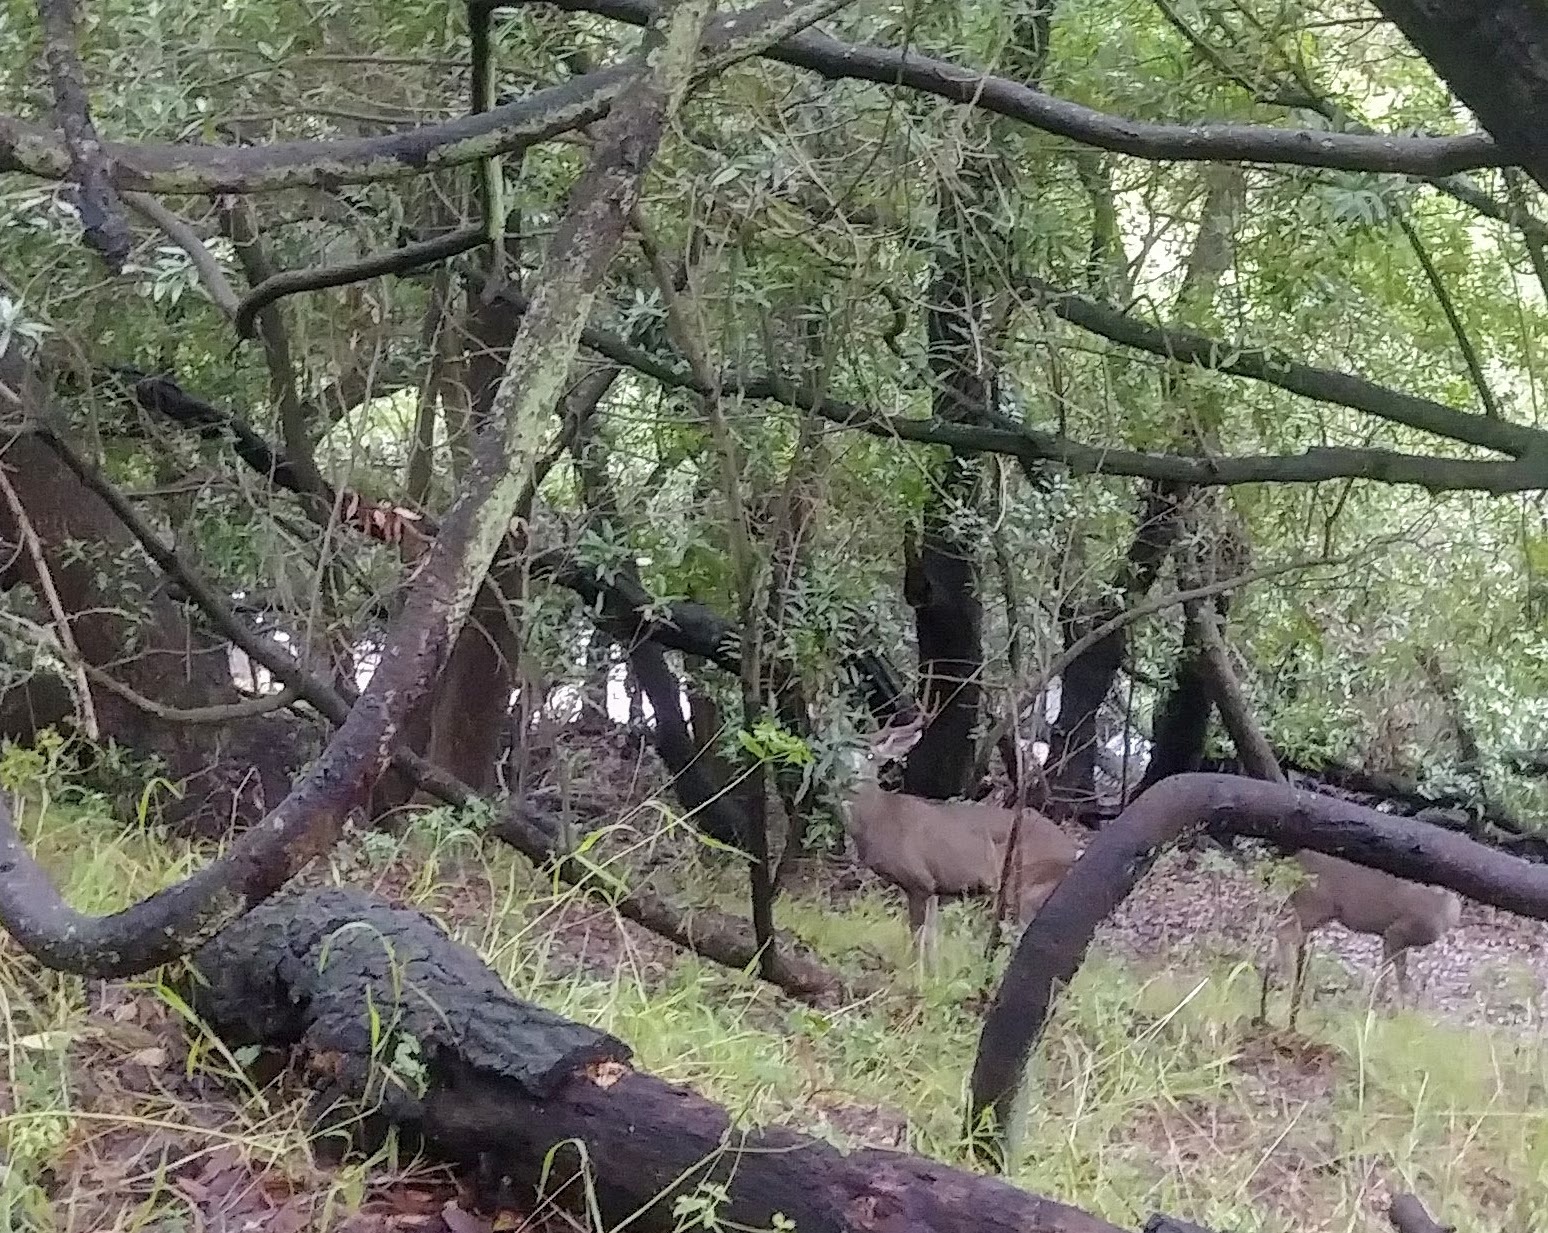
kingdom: Animalia
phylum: Chordata
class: Mammalia
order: Artiodactyla
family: Cervidae
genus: Odocoileus
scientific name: Odocoileus hemionus
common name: Mule deer
